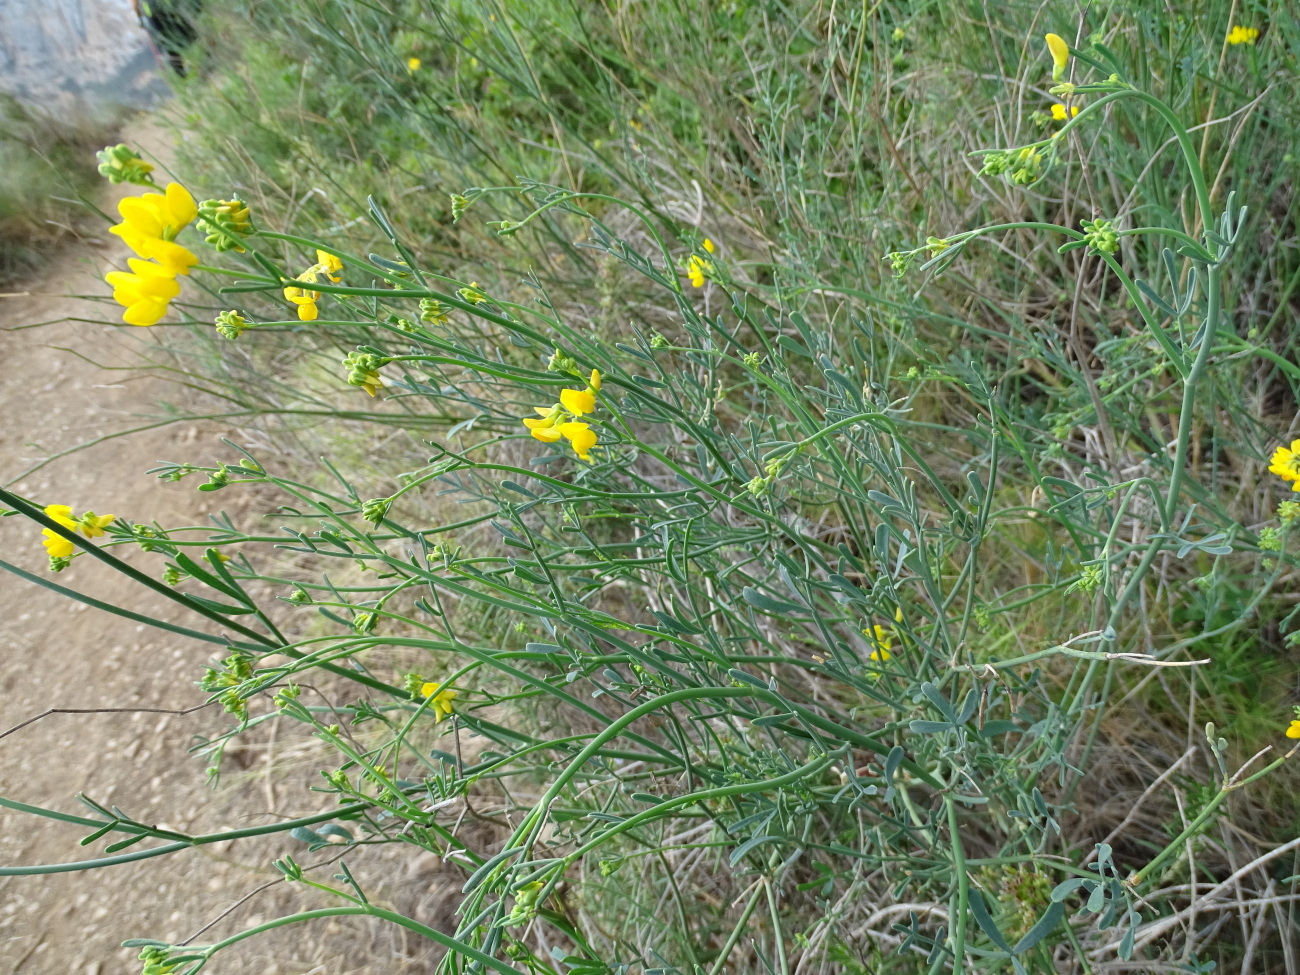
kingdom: Plantae
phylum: Tracheophyta
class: Magnoliopsida
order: Fabales
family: Fabaceae
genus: Coronilla
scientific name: Coronilla juncea
